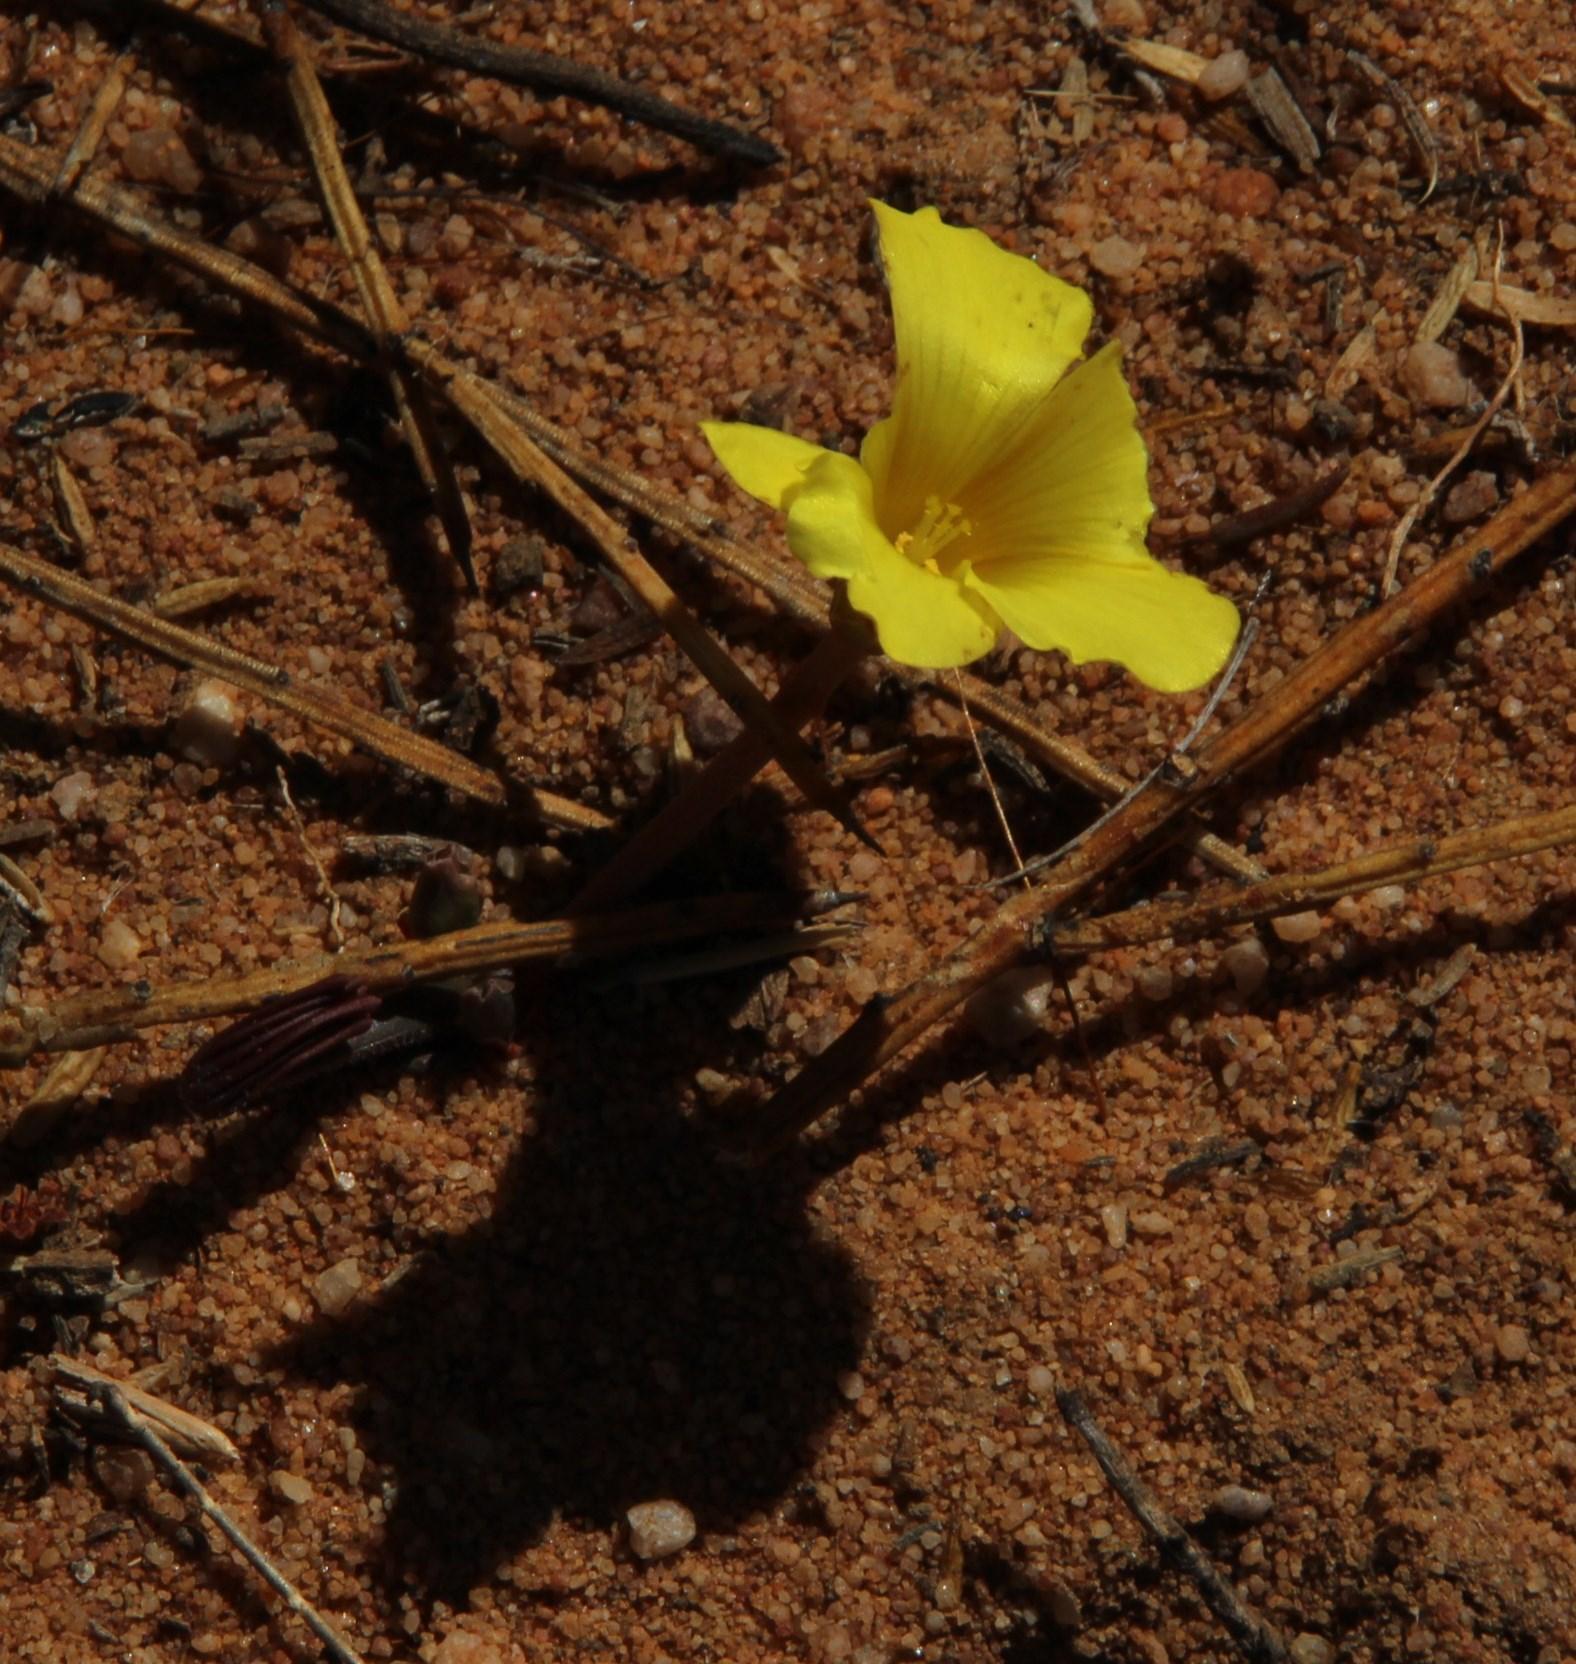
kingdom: Plantae
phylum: Tracheophyta
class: Magnoliopsida
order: Oxalidales
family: Oxalidaceae
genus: Oxalis
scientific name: Oxalis flava
